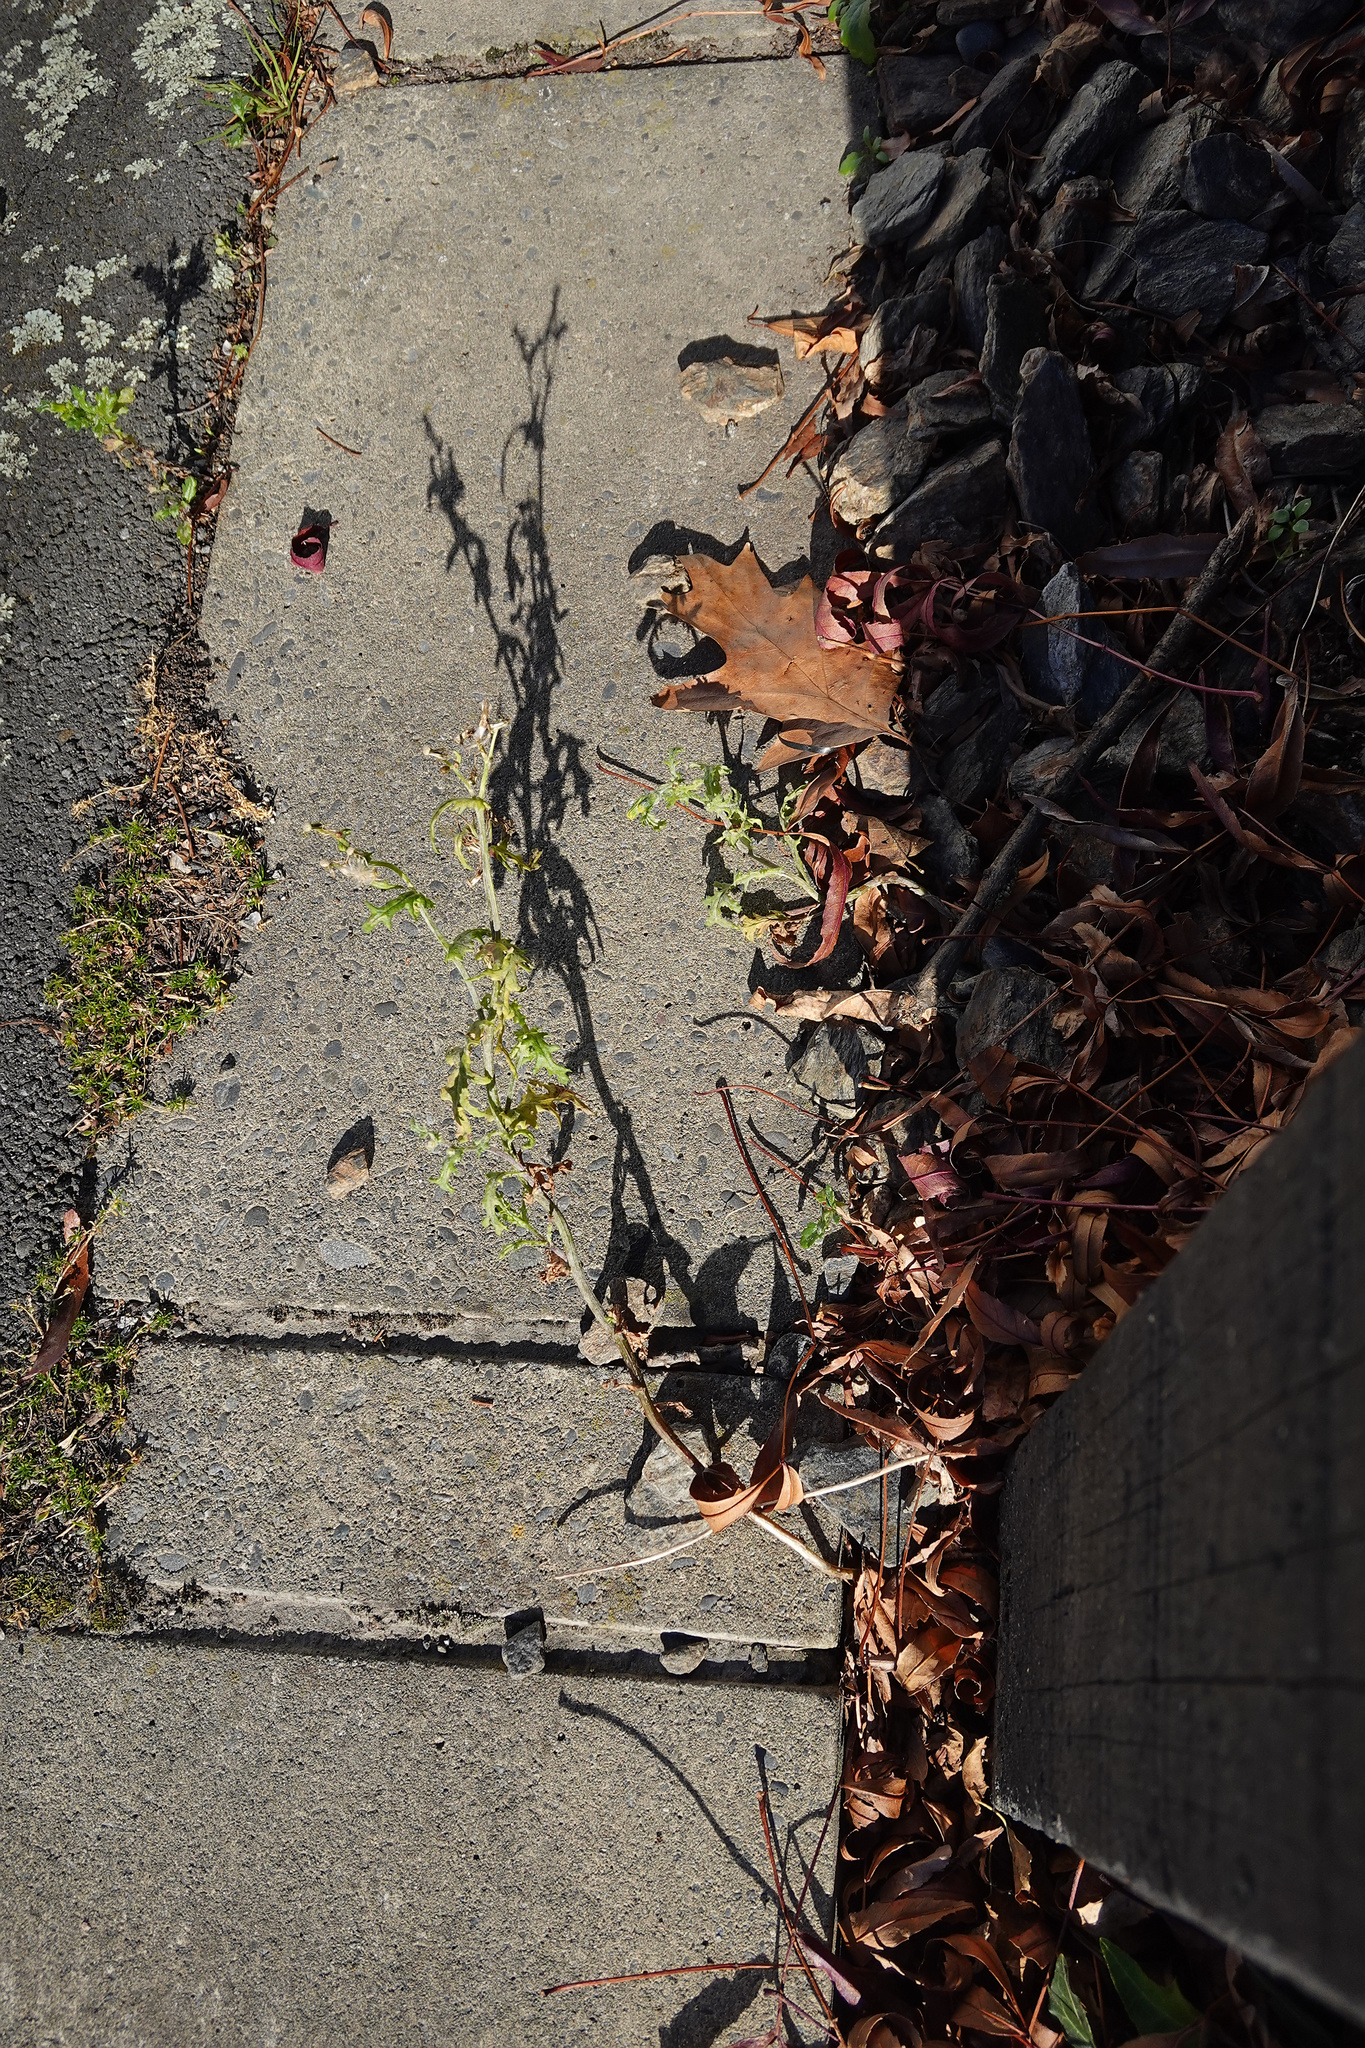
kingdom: Plantae
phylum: Tracheophyta
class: Magnoliopsida
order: Asterales
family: Asteraceae
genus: Senecio
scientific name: Senecio vulgaris
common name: Old-man-in-the-spring
